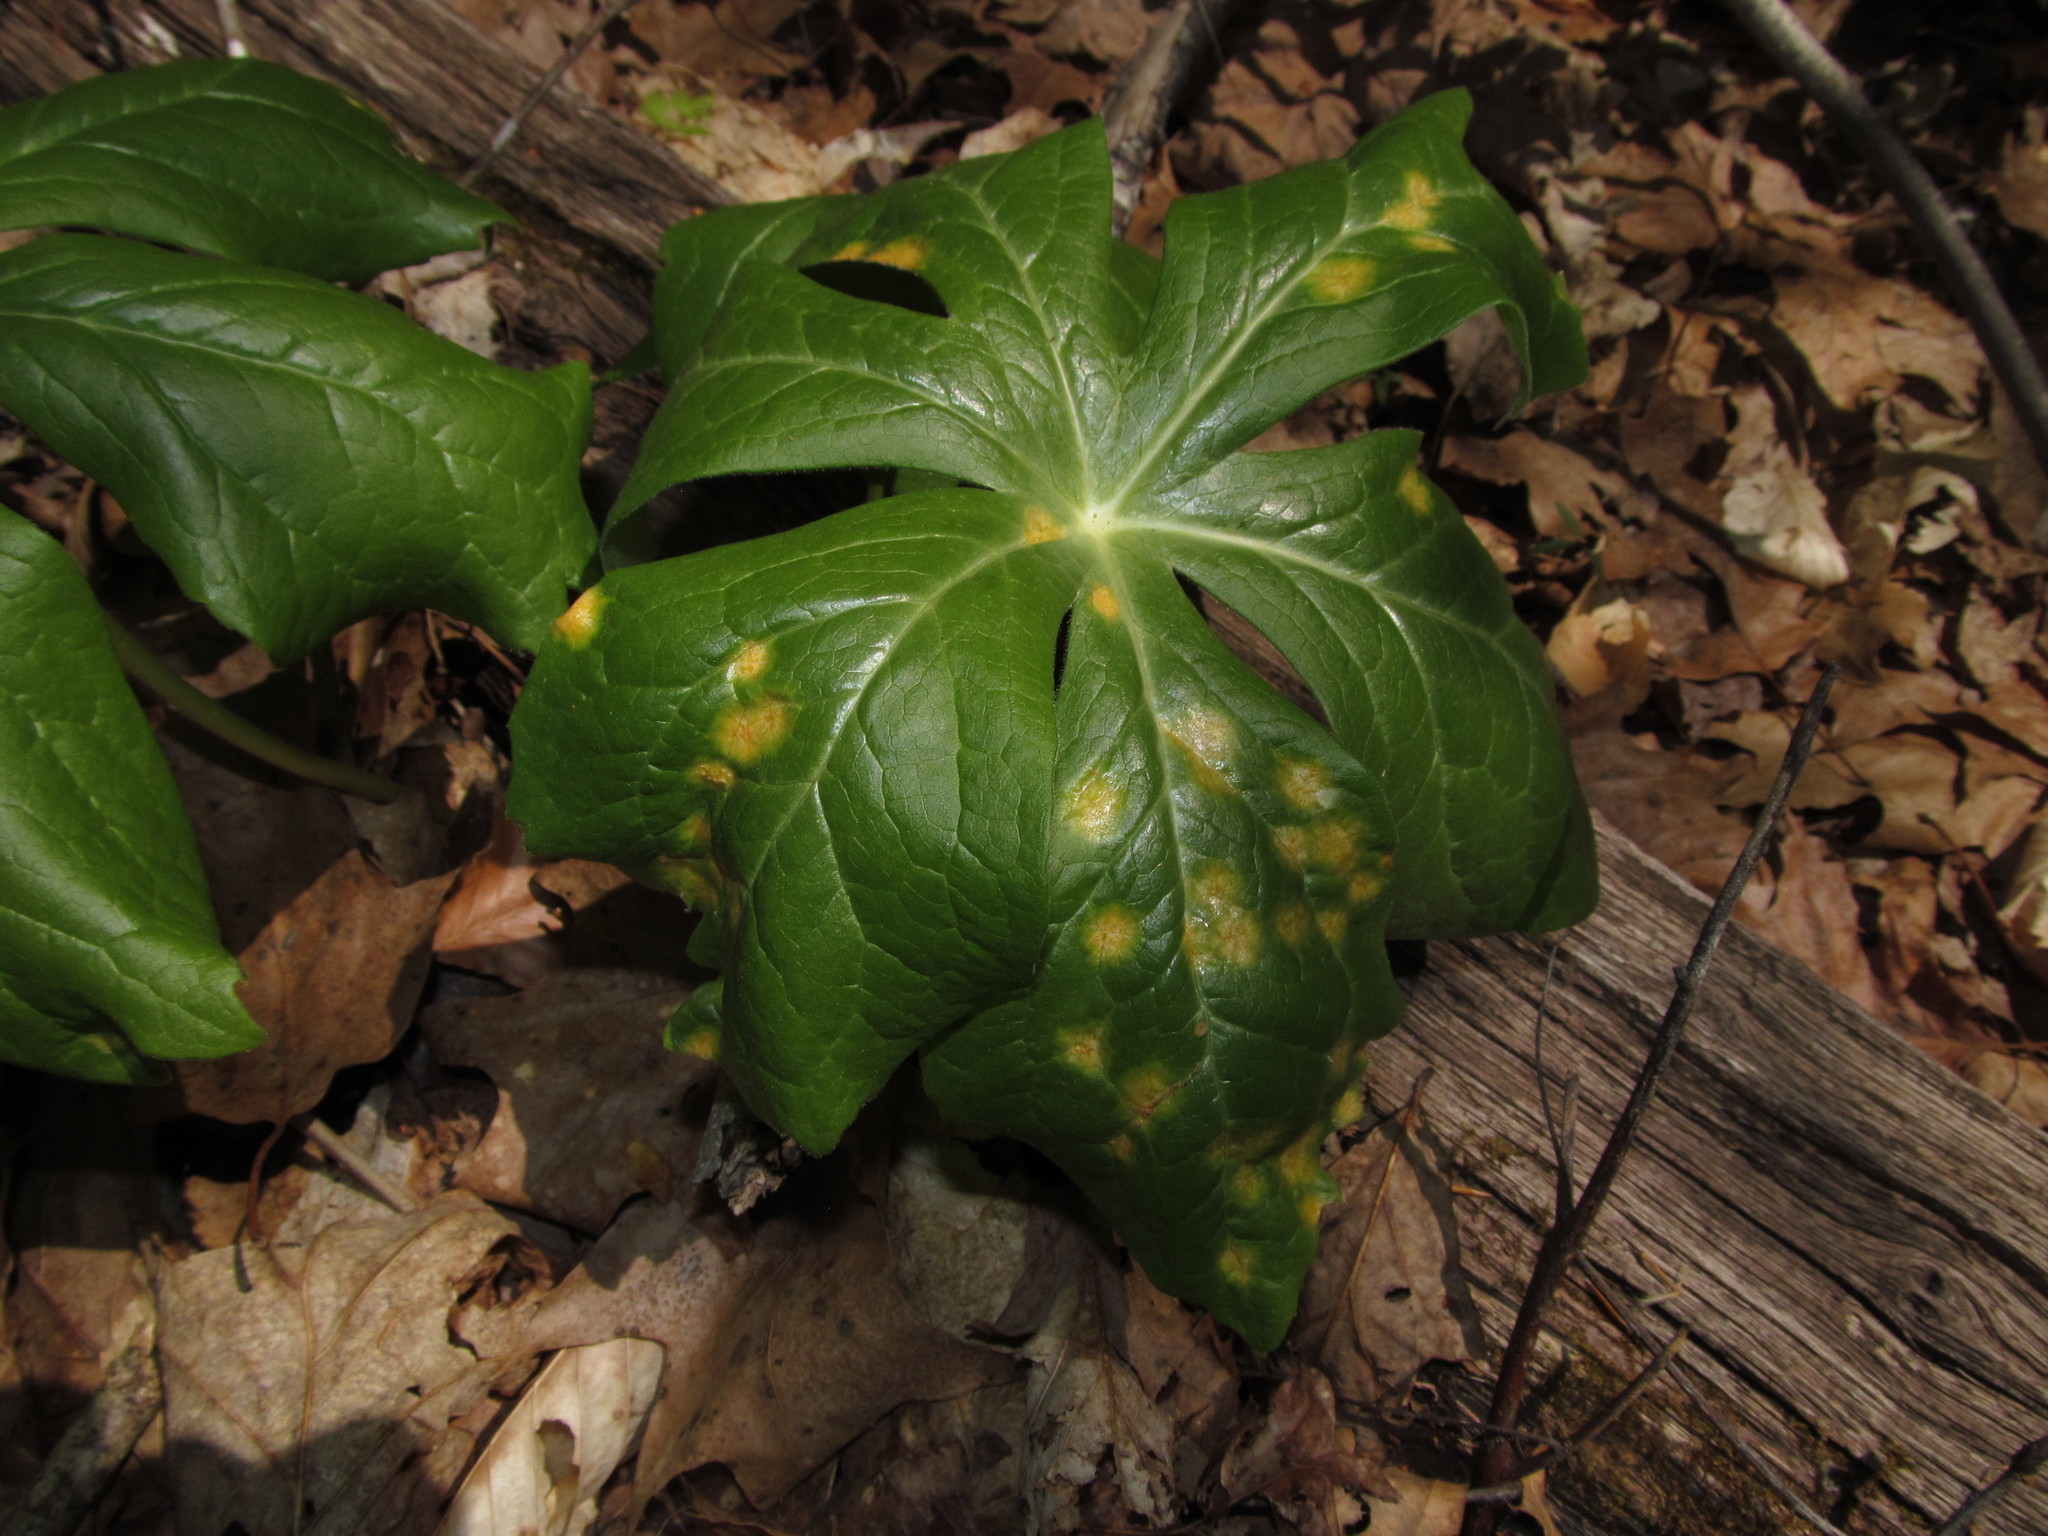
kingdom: Fungi
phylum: Basidiomycota
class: Pucciniomycetes
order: Pucciniales
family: Pucciniaceae
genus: Puccinia
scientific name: Puccinia podophylli
